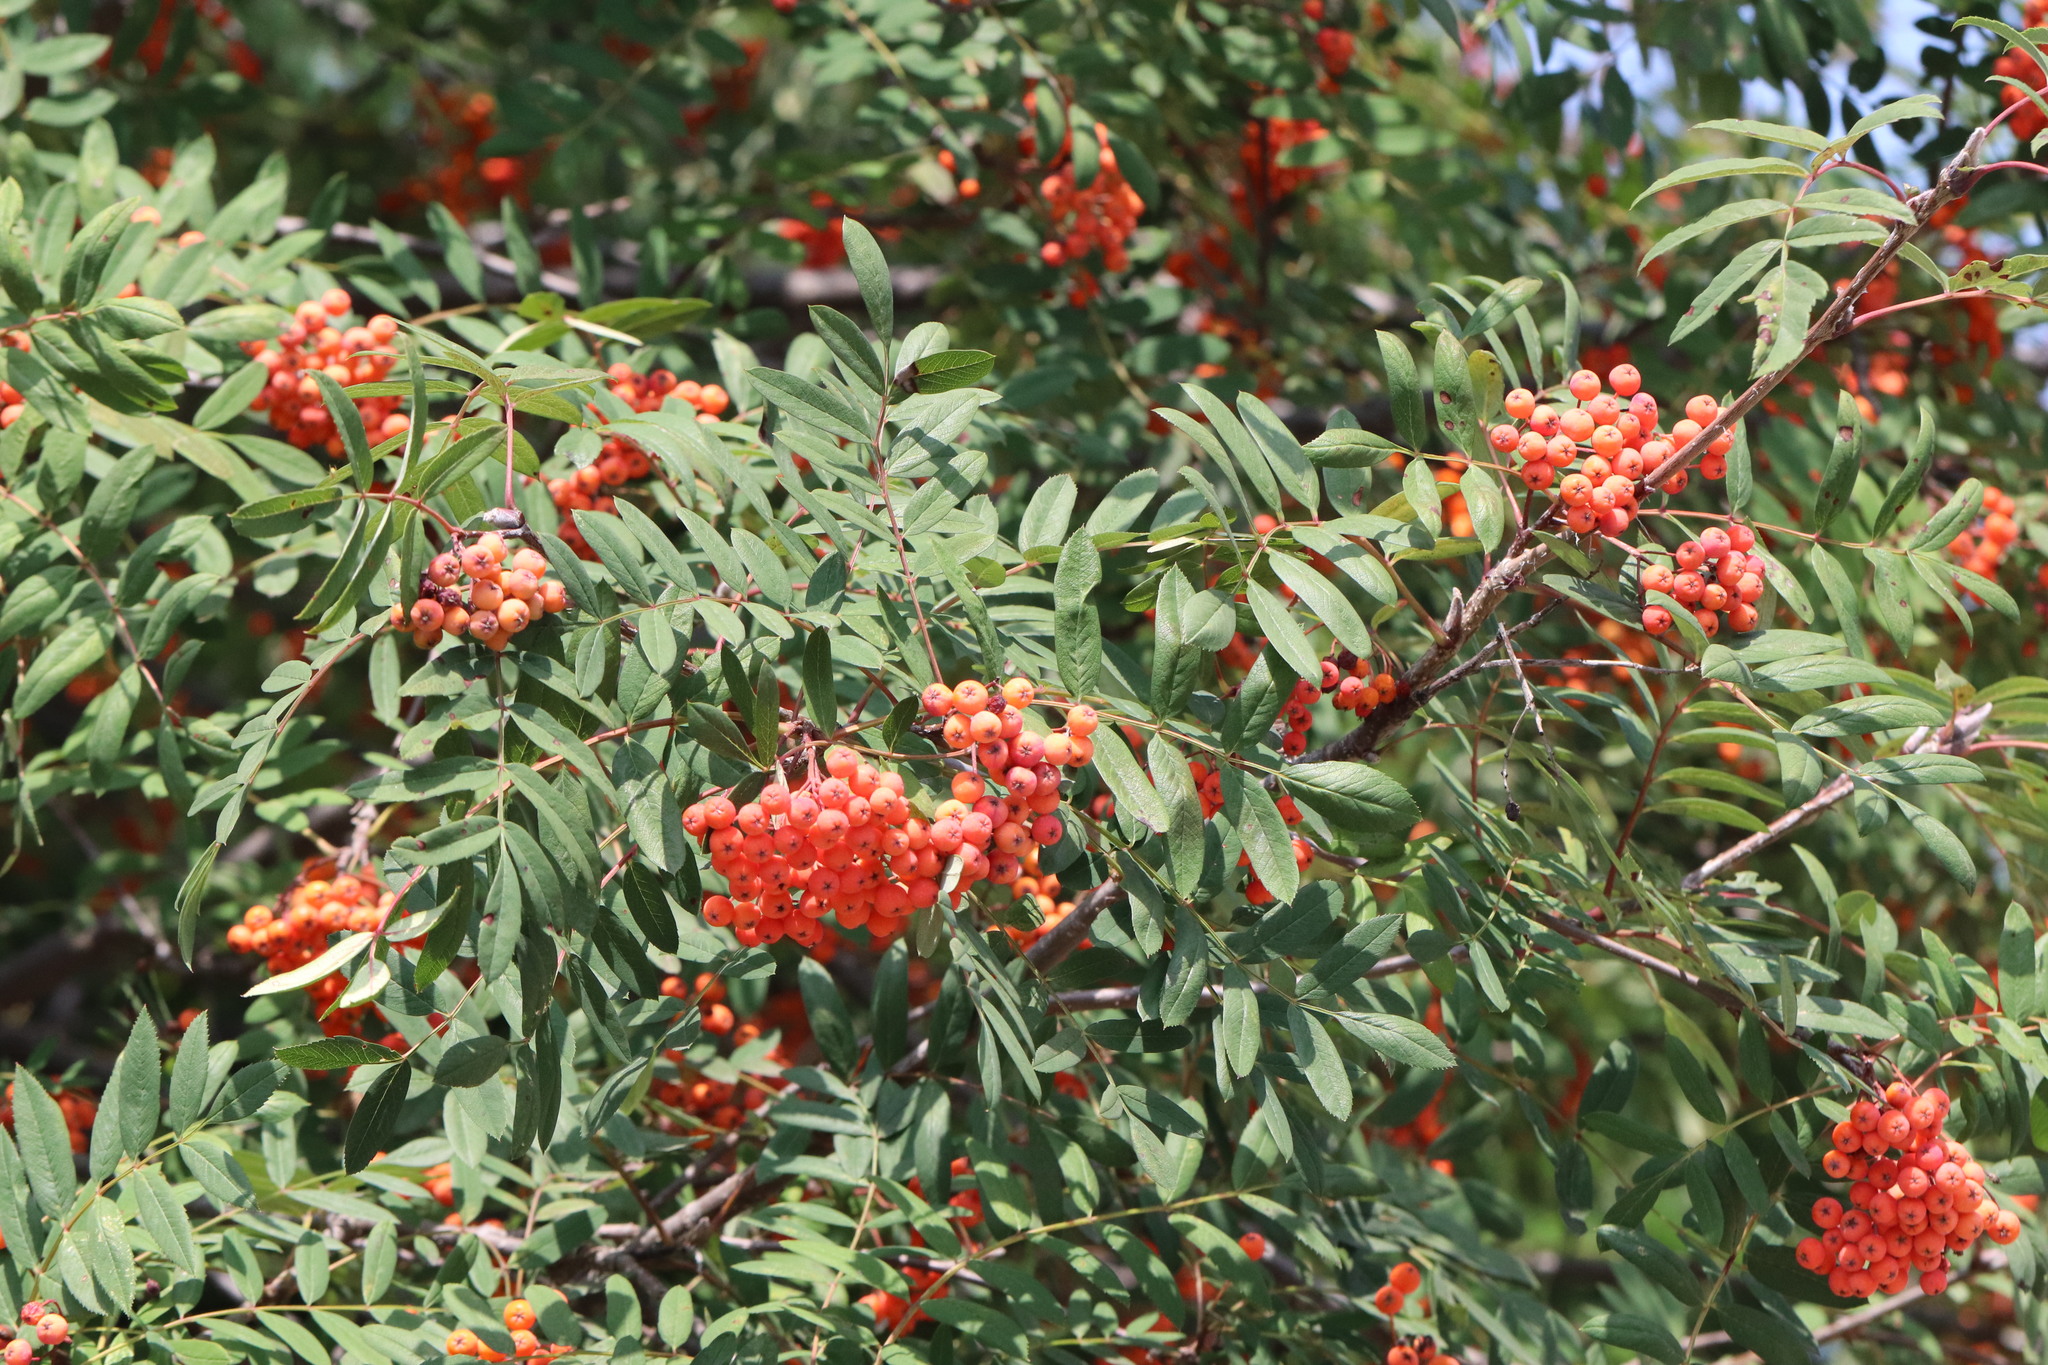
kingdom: Plantae
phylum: Tracheophyta
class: Magnoliopsida
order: Rosales
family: Rosaceae
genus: Sorbus
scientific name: Sorbus aucuparia
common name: Rowan
